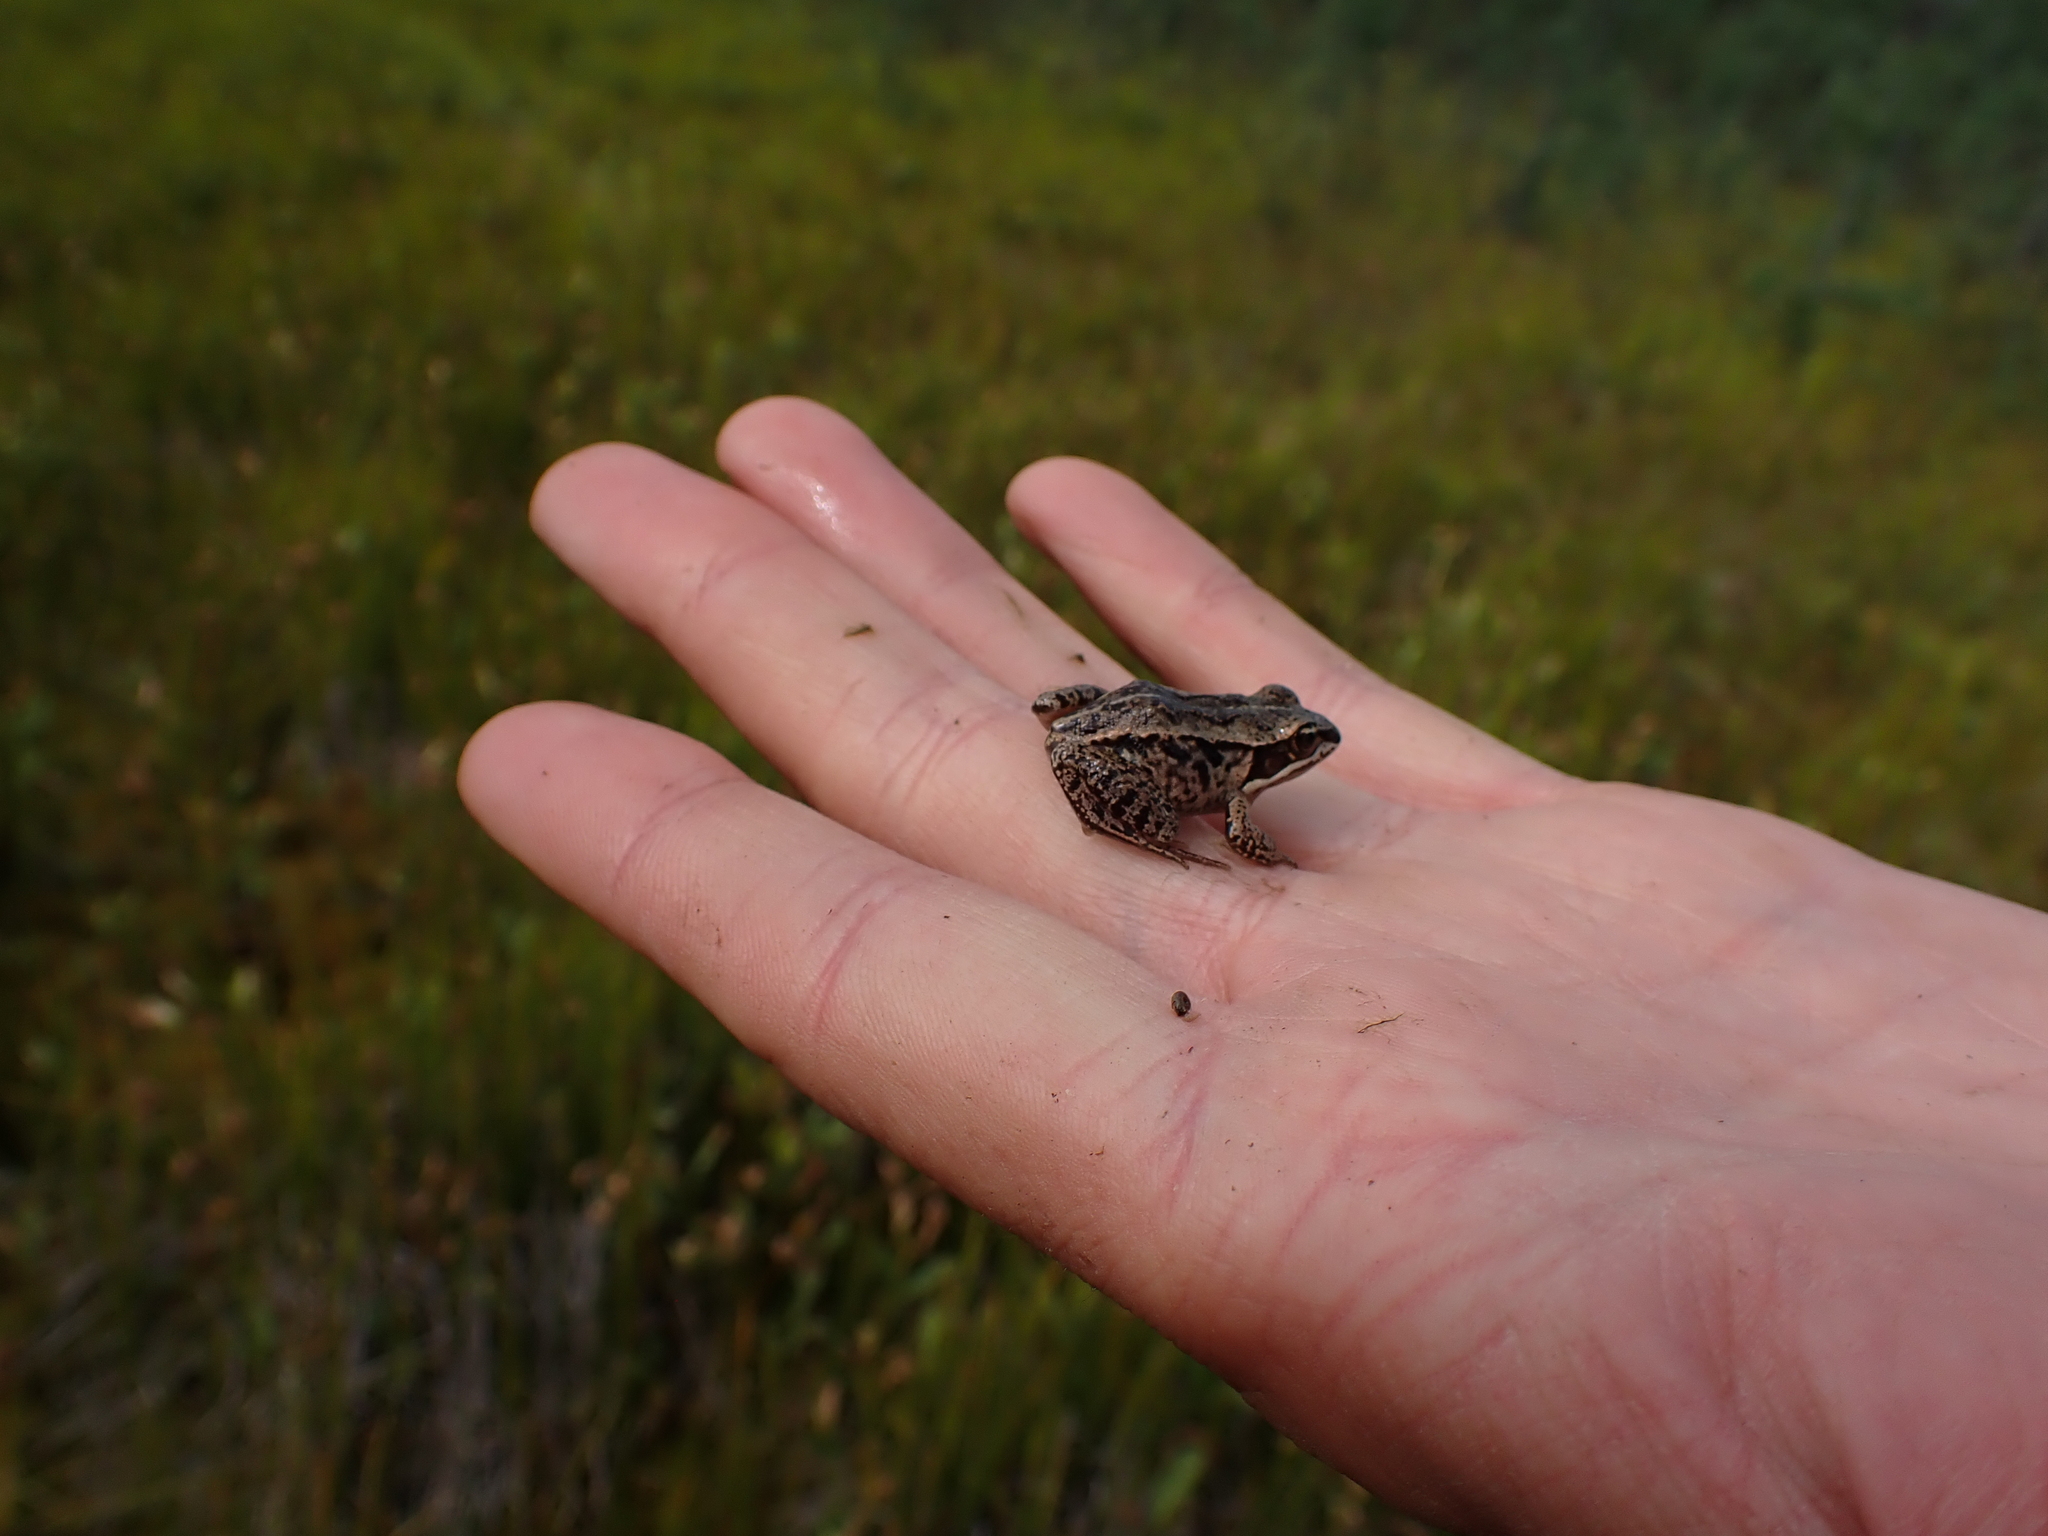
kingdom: Animalia
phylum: Chordata
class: Amphibia
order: Anura
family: Ranidae
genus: Lithobates
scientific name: Lithobates sylvaticus
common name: Wood frog
